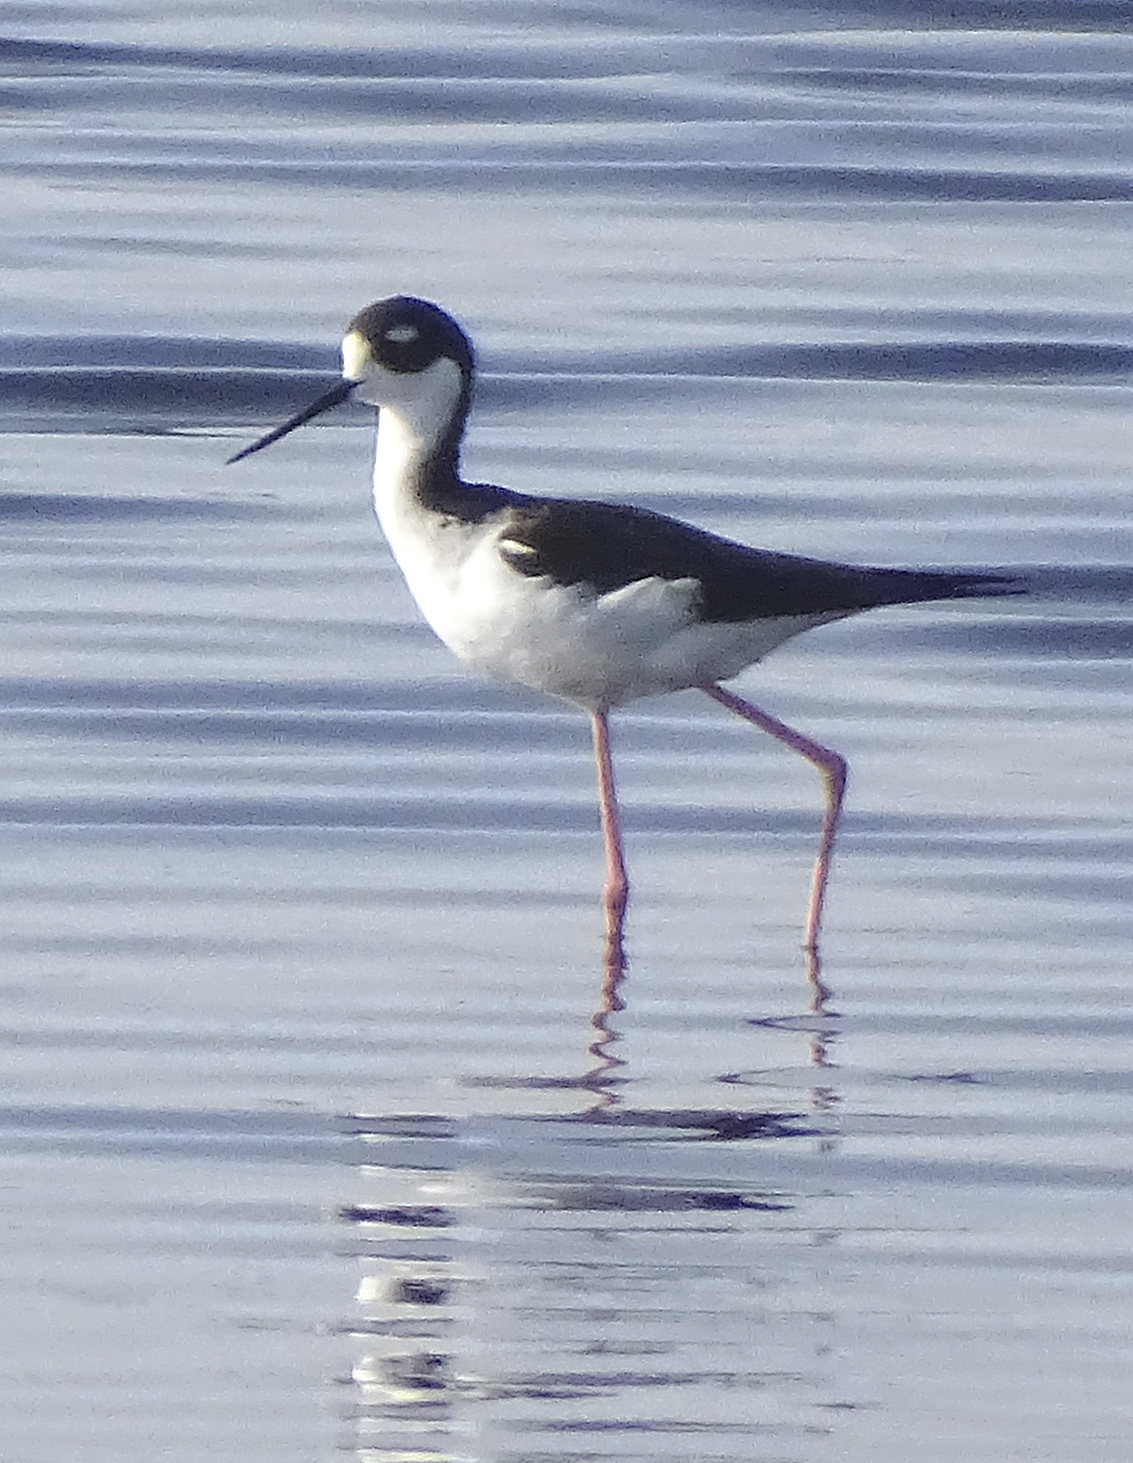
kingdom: Animalia
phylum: Chordata
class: Aves
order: Charadriiformes
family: Recurvirostridae
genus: Himantopus
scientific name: Himantopus mexicanus
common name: Black-necked stilt
